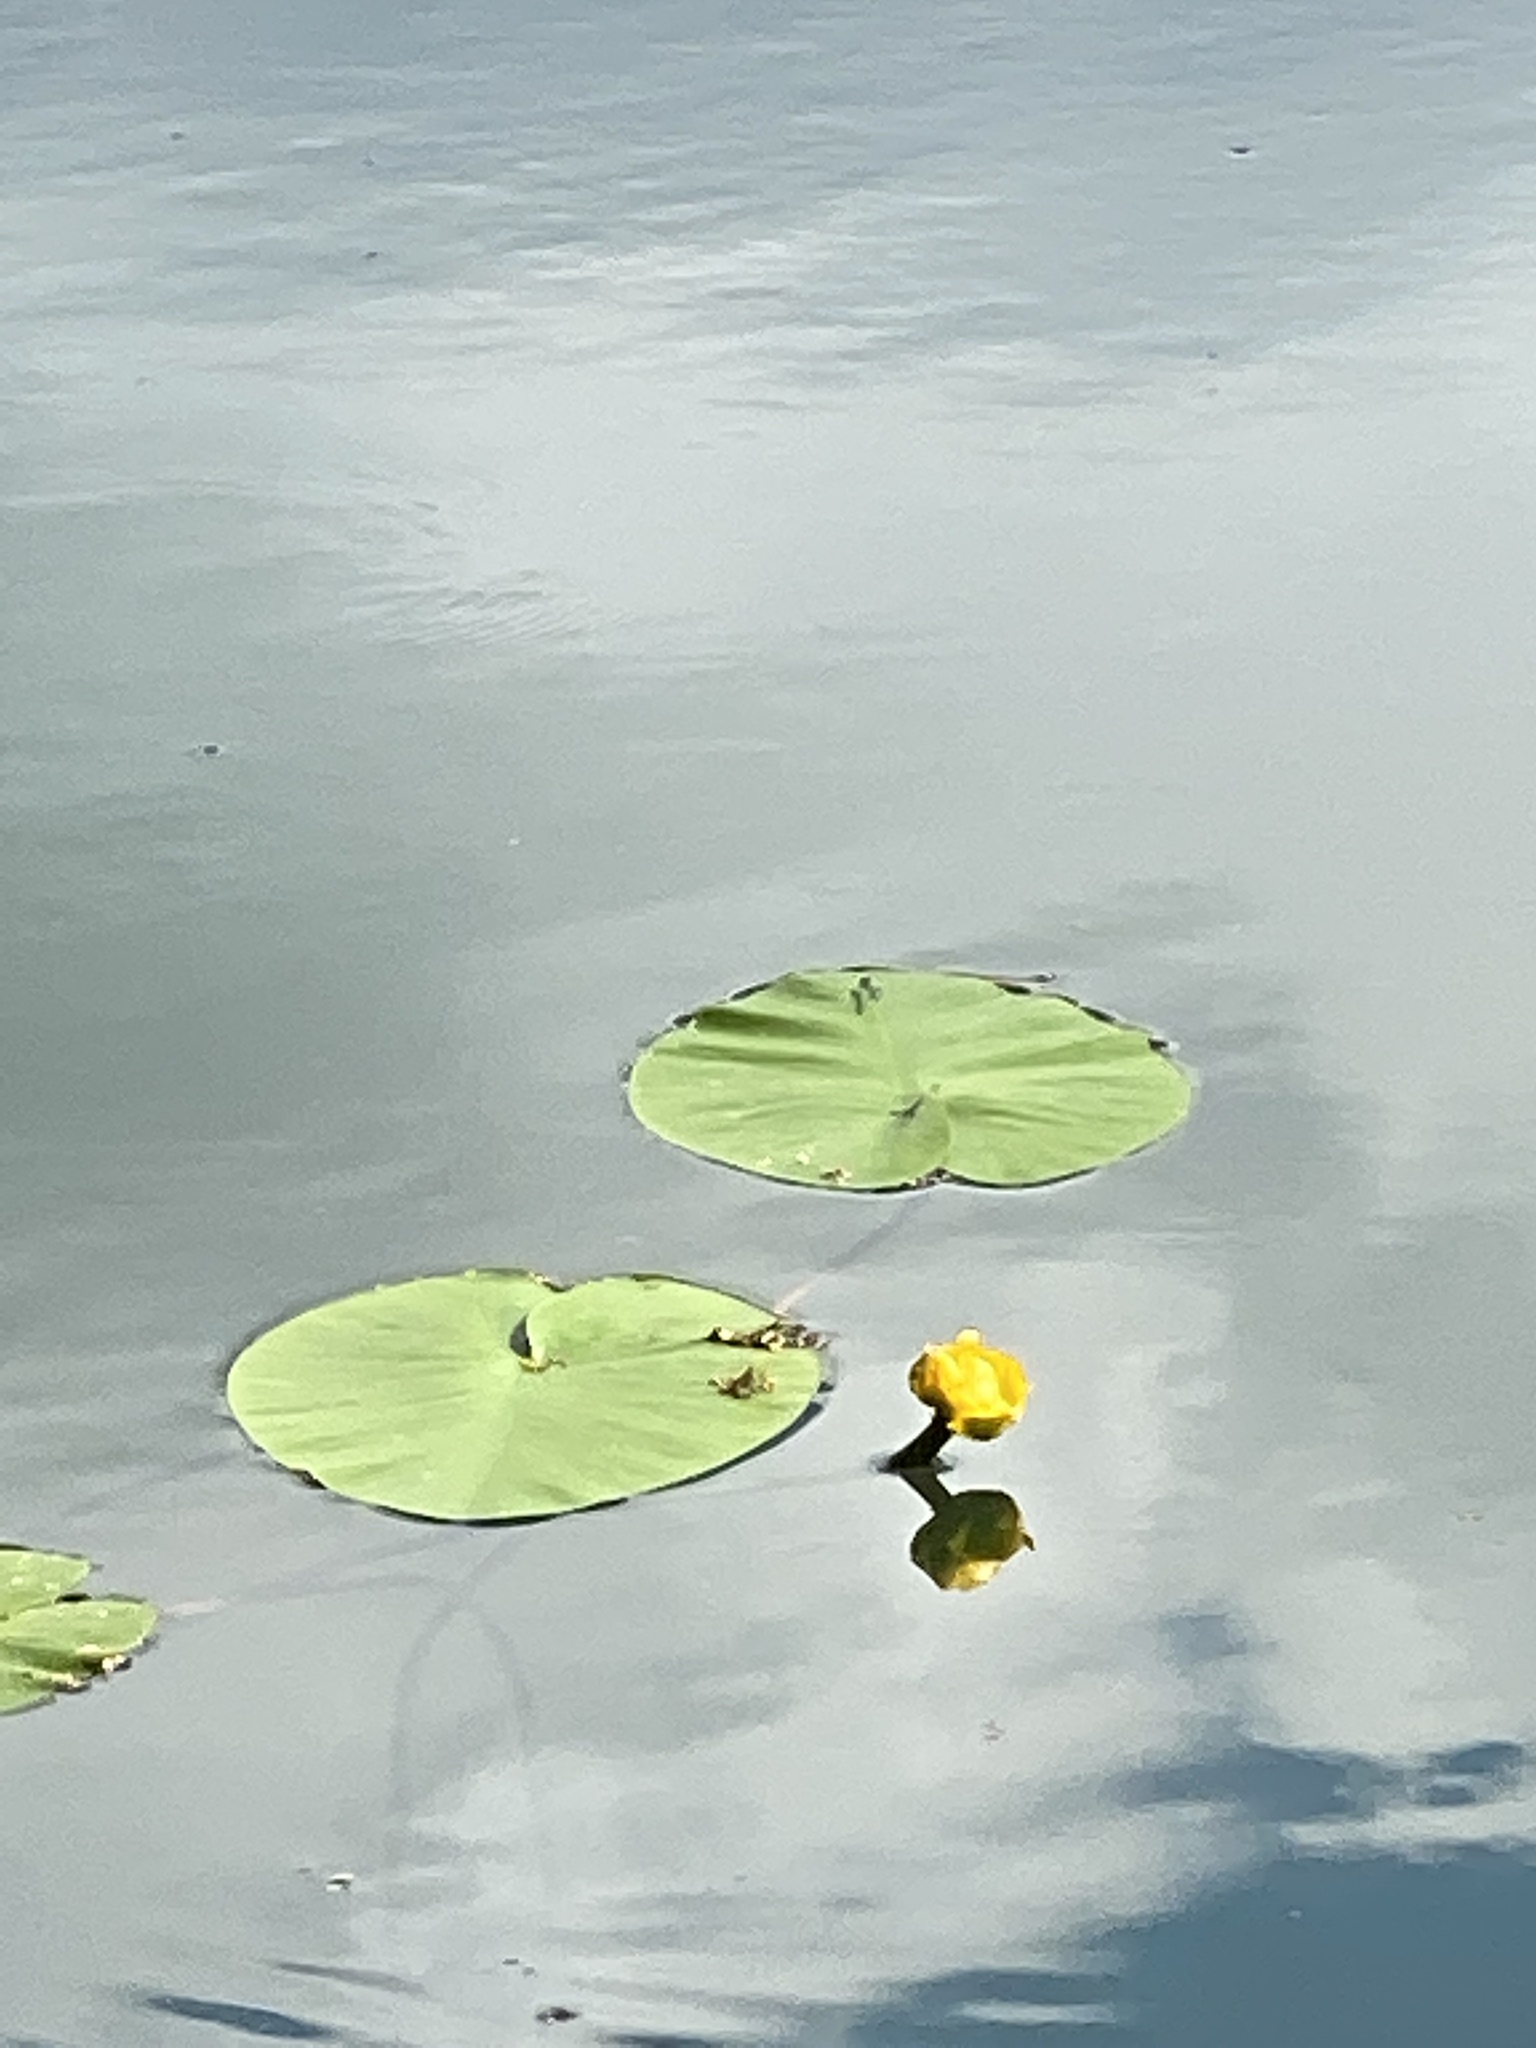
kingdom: Plantae
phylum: Tracheophyta
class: Magnoliopsida
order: Nymphaeales
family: Nymphaeaceae
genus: Nuphar
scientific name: Nuphar lutea
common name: Yellow water-lily
